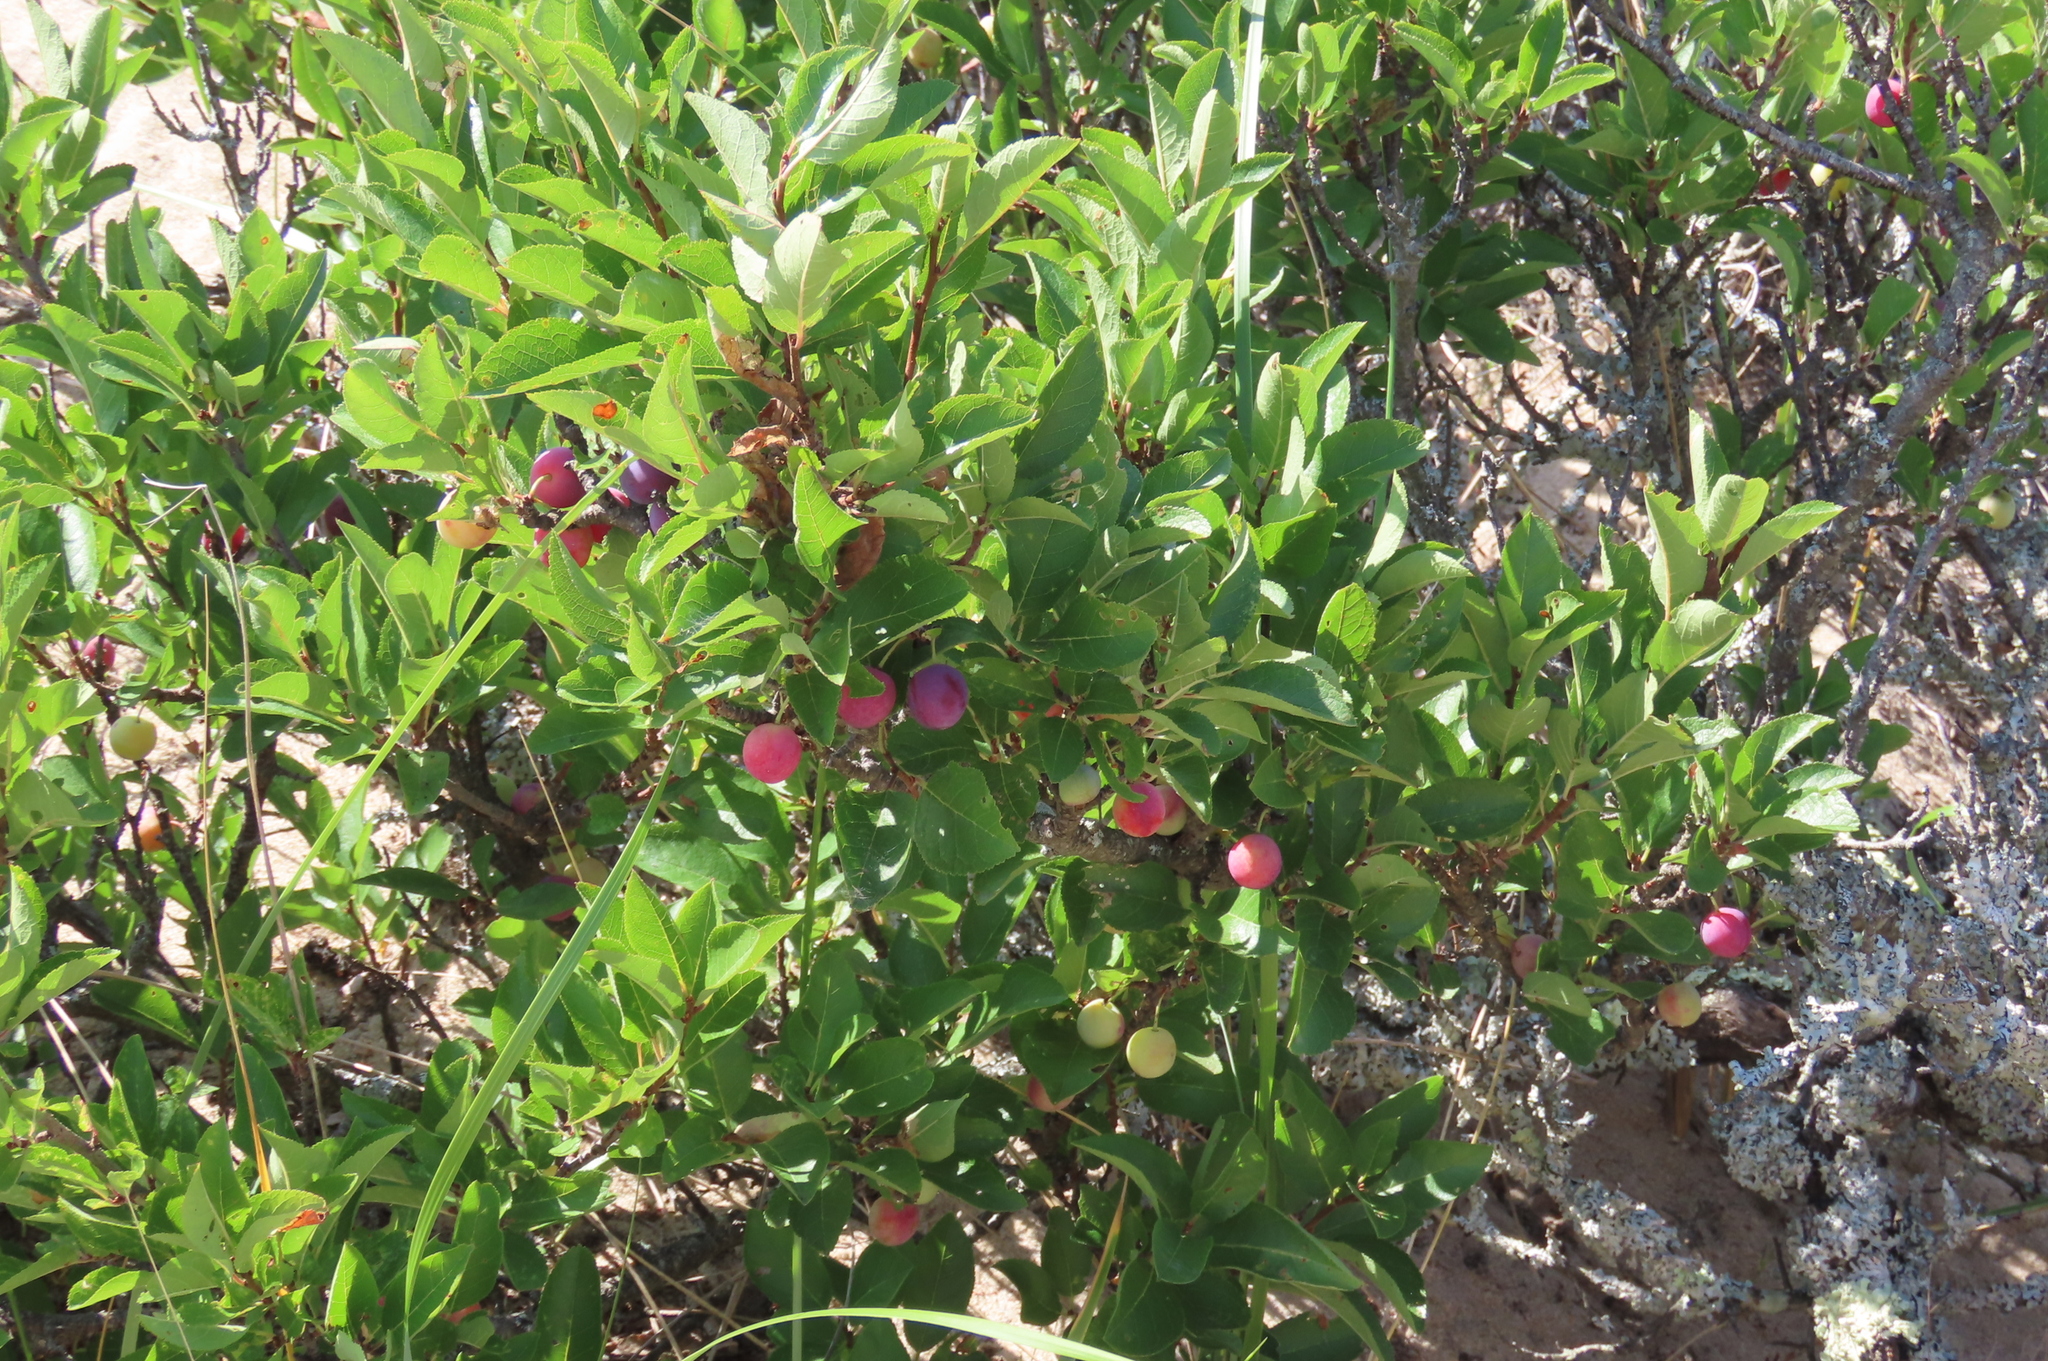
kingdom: Plantae
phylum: Tracheophyta
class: Magnoliopsida
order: Rosales
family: Rosaceae
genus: Prunus
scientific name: Prunus maritima
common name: Beach plum
